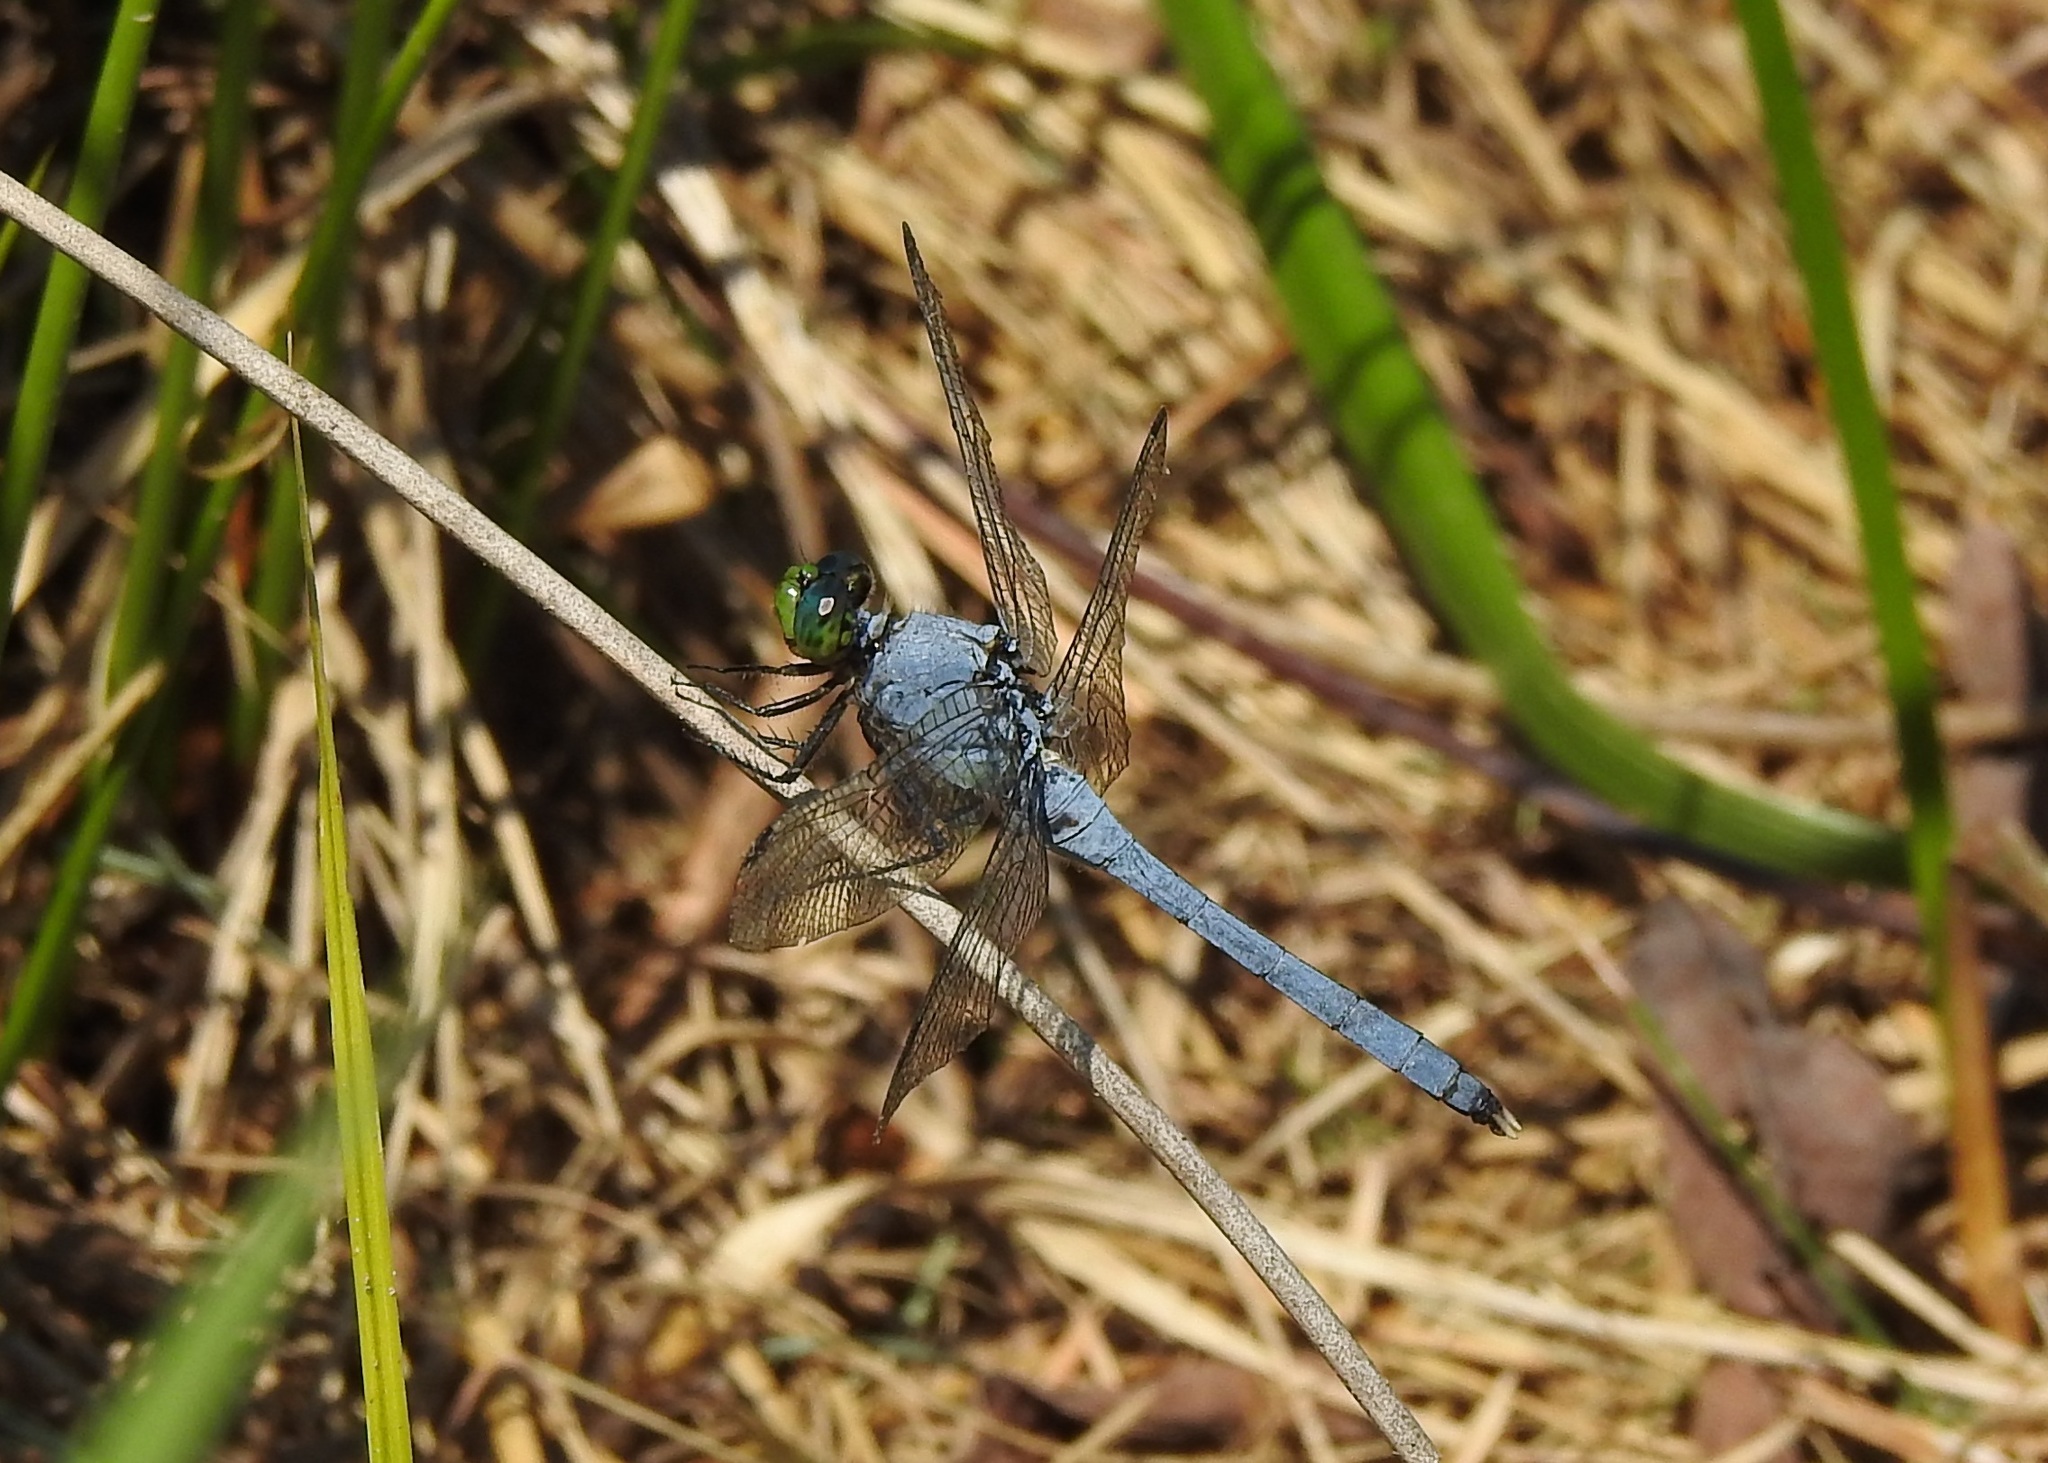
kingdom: Animalia
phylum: Arthropoda
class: Insecta
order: Odonata
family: Libellulidae
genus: Erythemis
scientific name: Erythemis simplicicollis
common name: Eastern pondhawk
